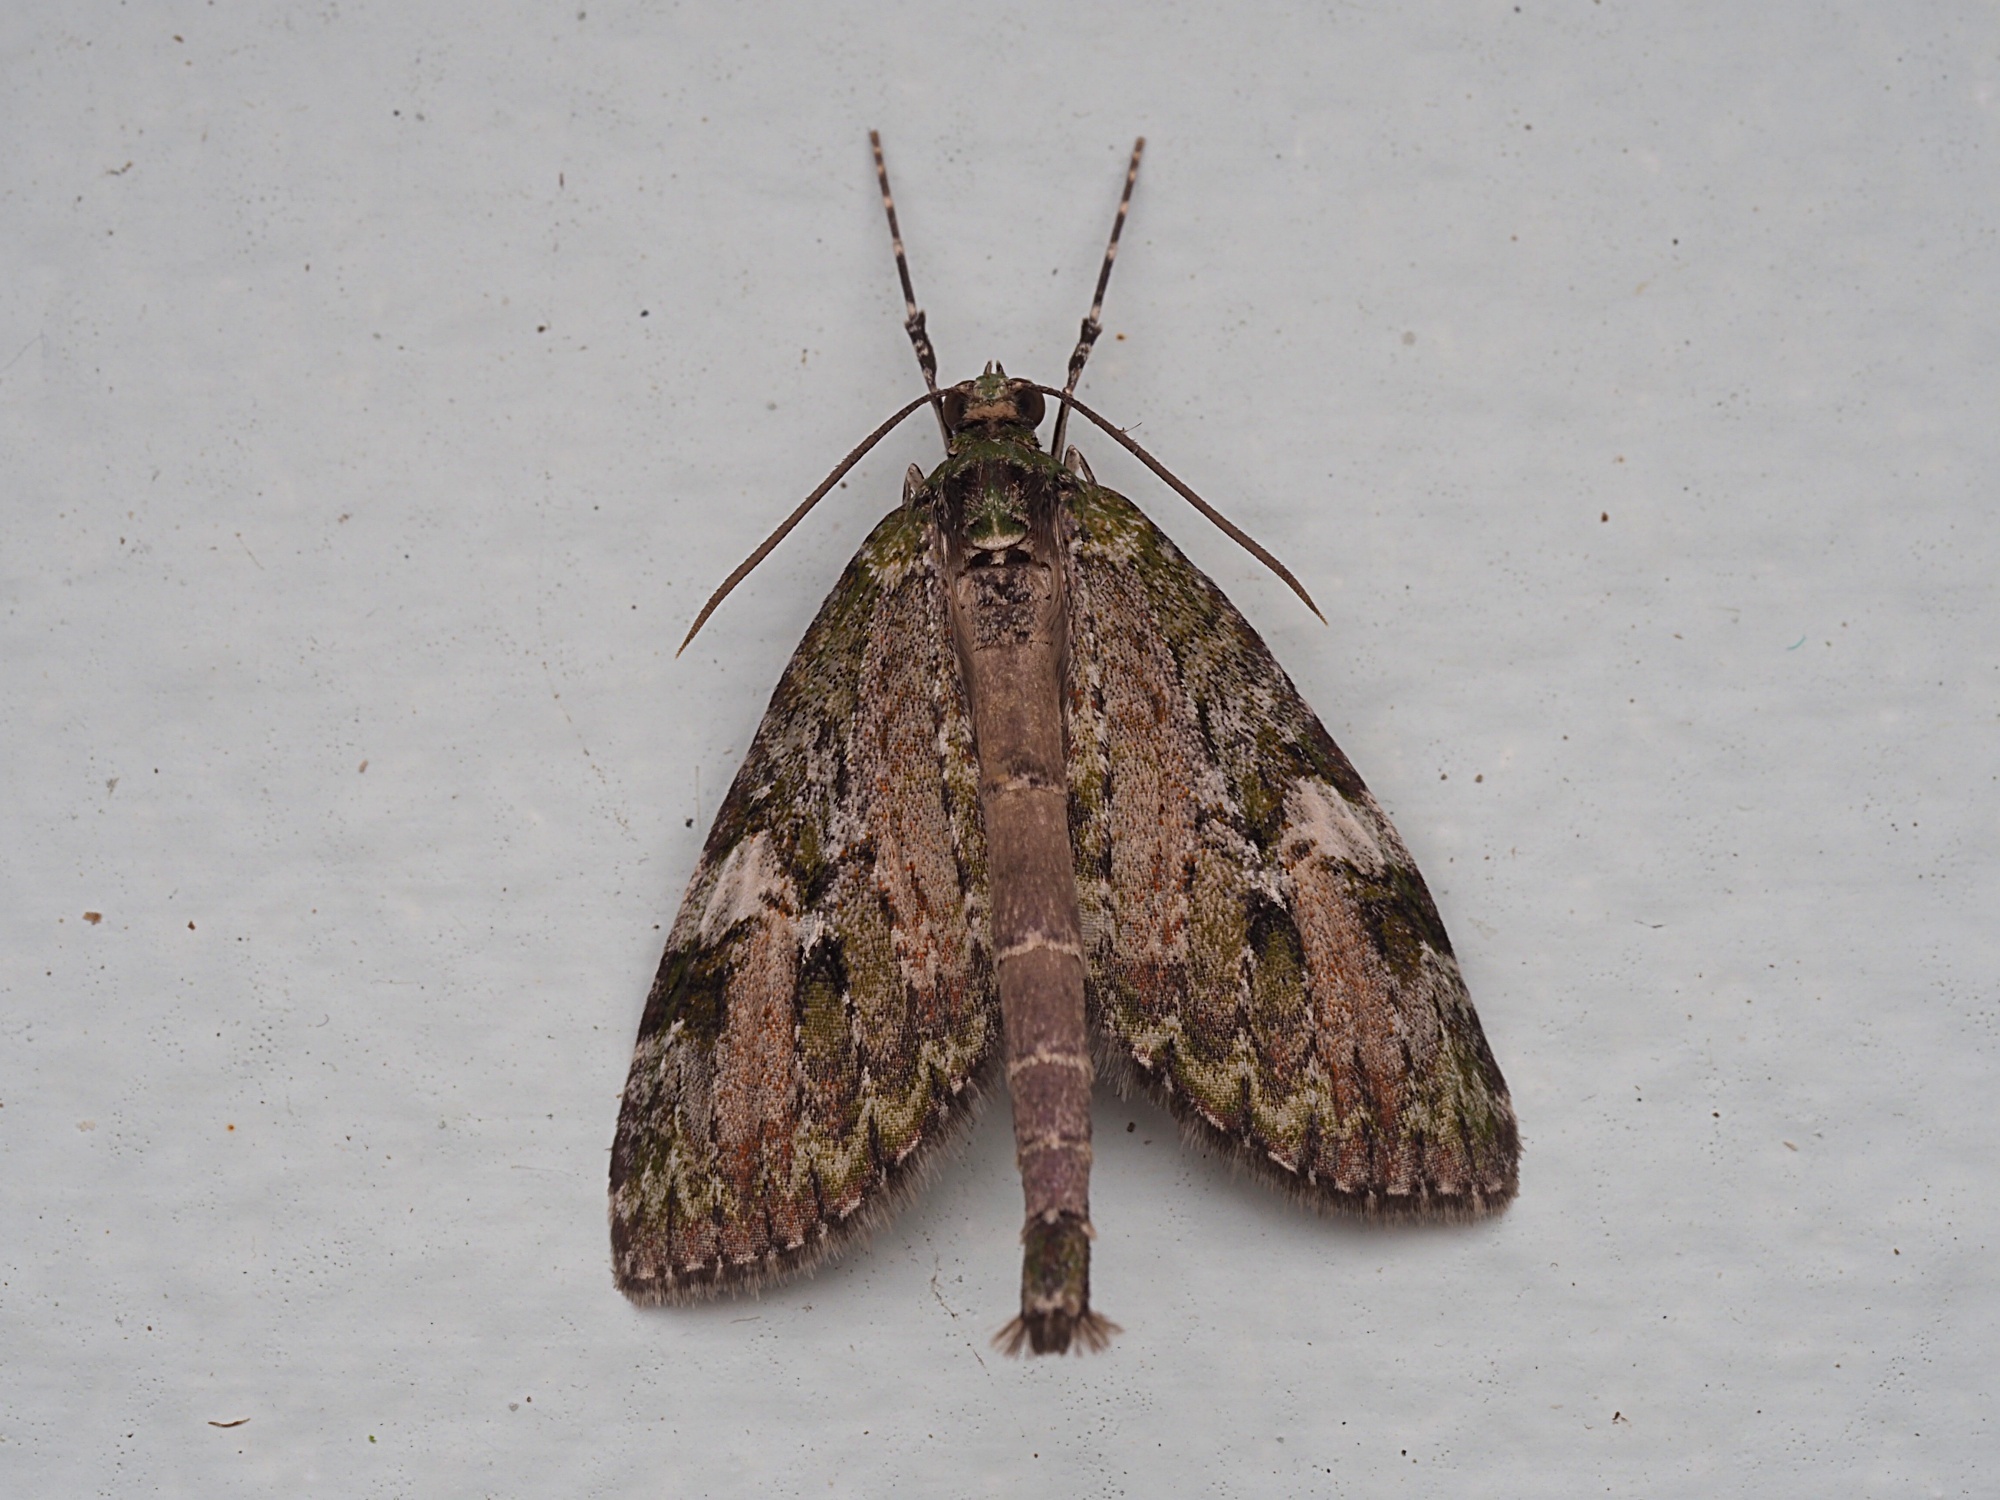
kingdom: Animalia
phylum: Arthropoda
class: Insecta
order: Lepidoptera
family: Geometridae
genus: Tatosoma
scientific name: Tatosoma topea
